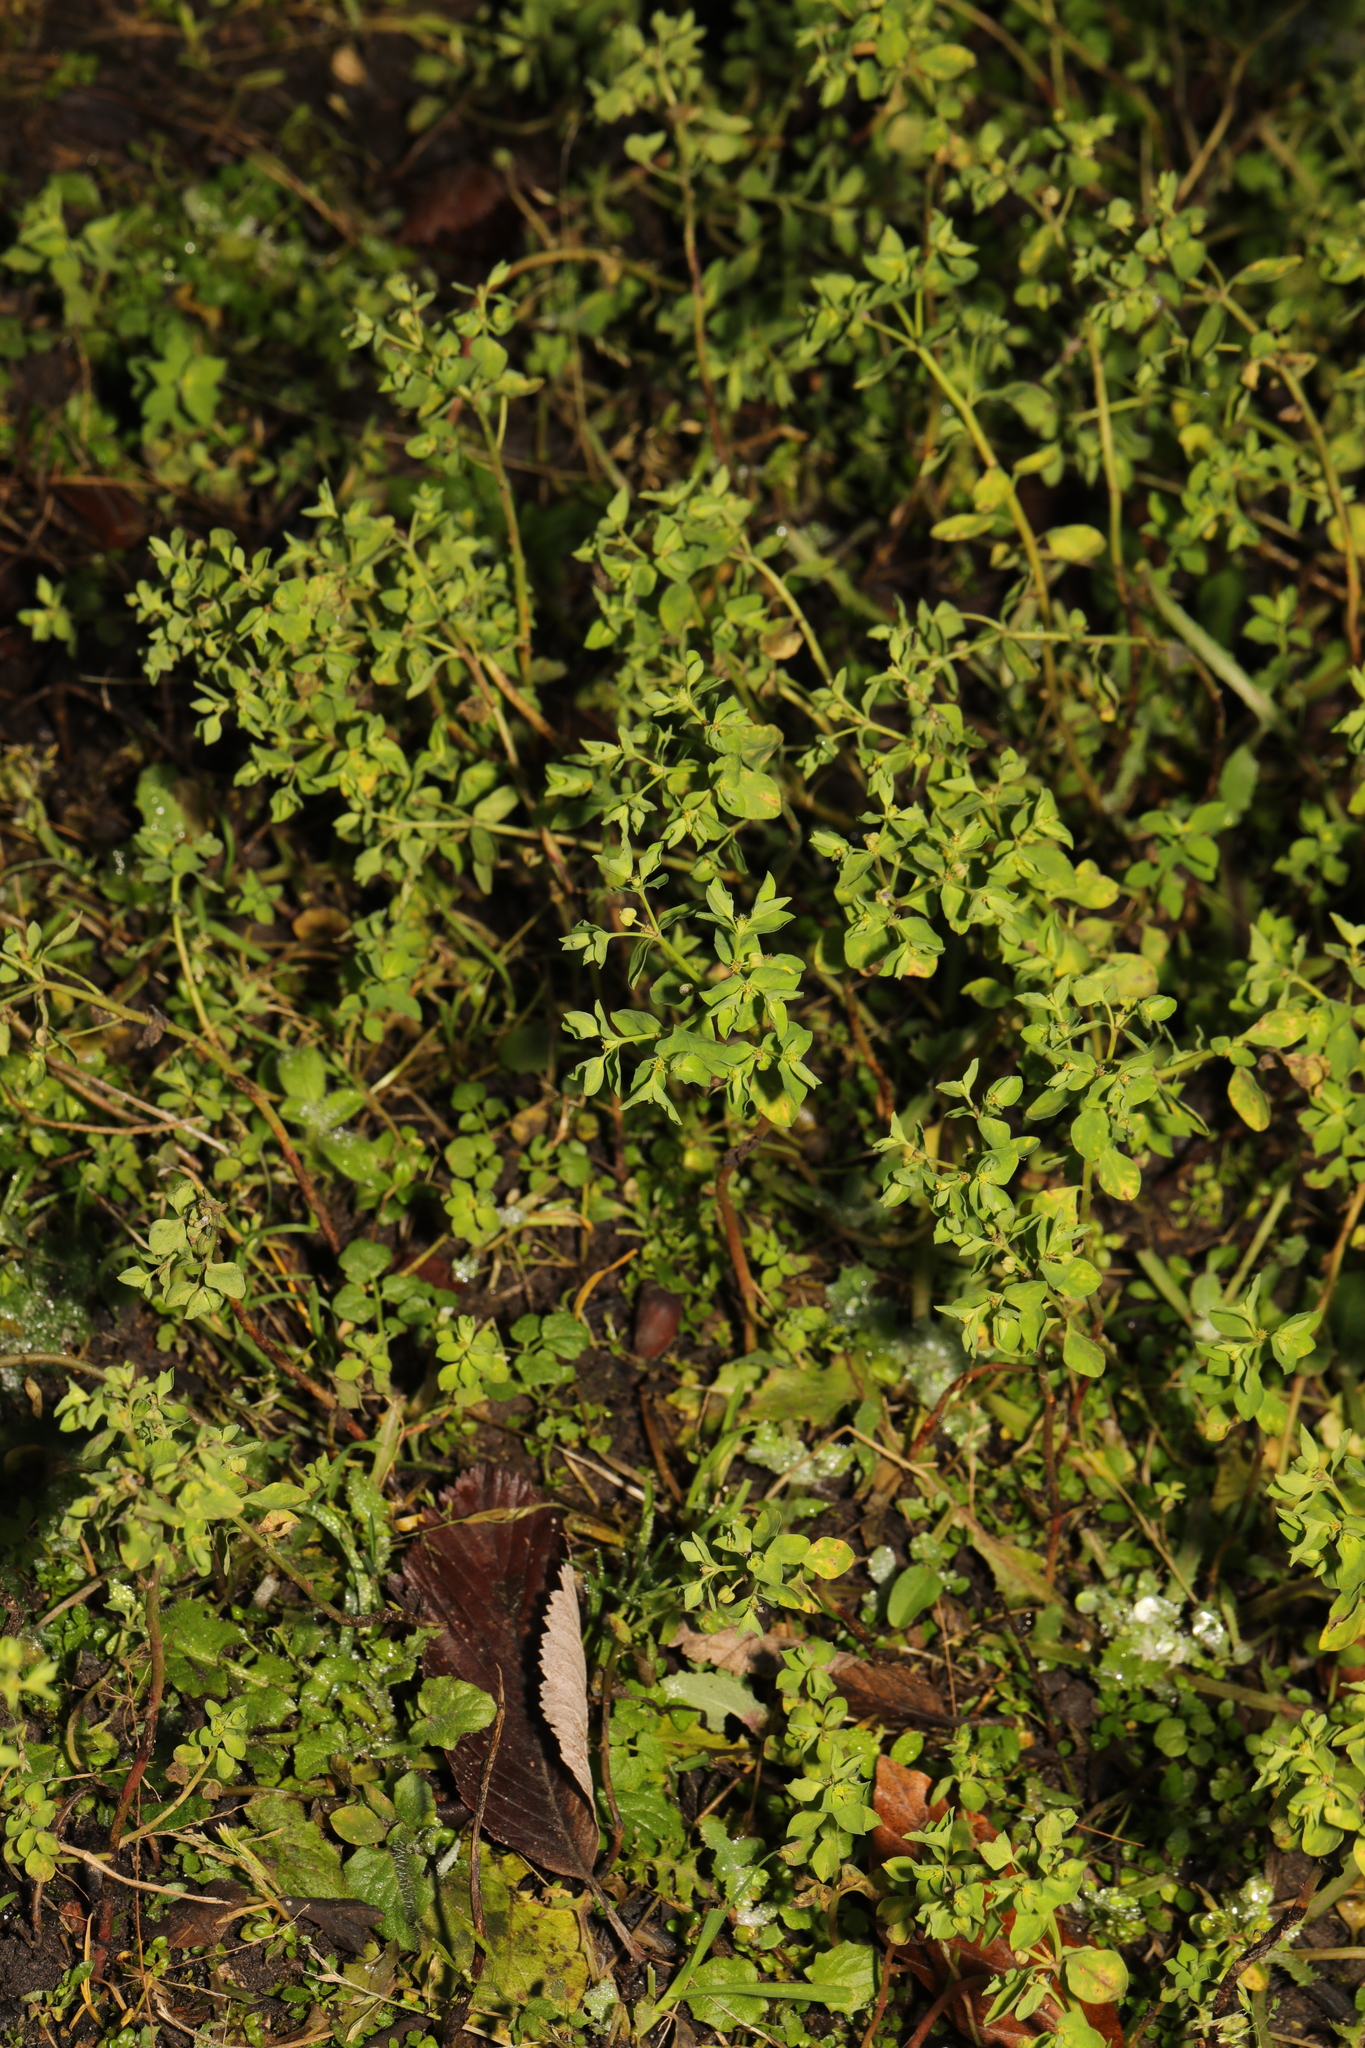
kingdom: Plantae
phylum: Tracheophyta
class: Magnoliopsida
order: Malpighiales
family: Euphorbiaceae
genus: Euphorbia
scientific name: Euphorbia peplus
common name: Petty spurge
